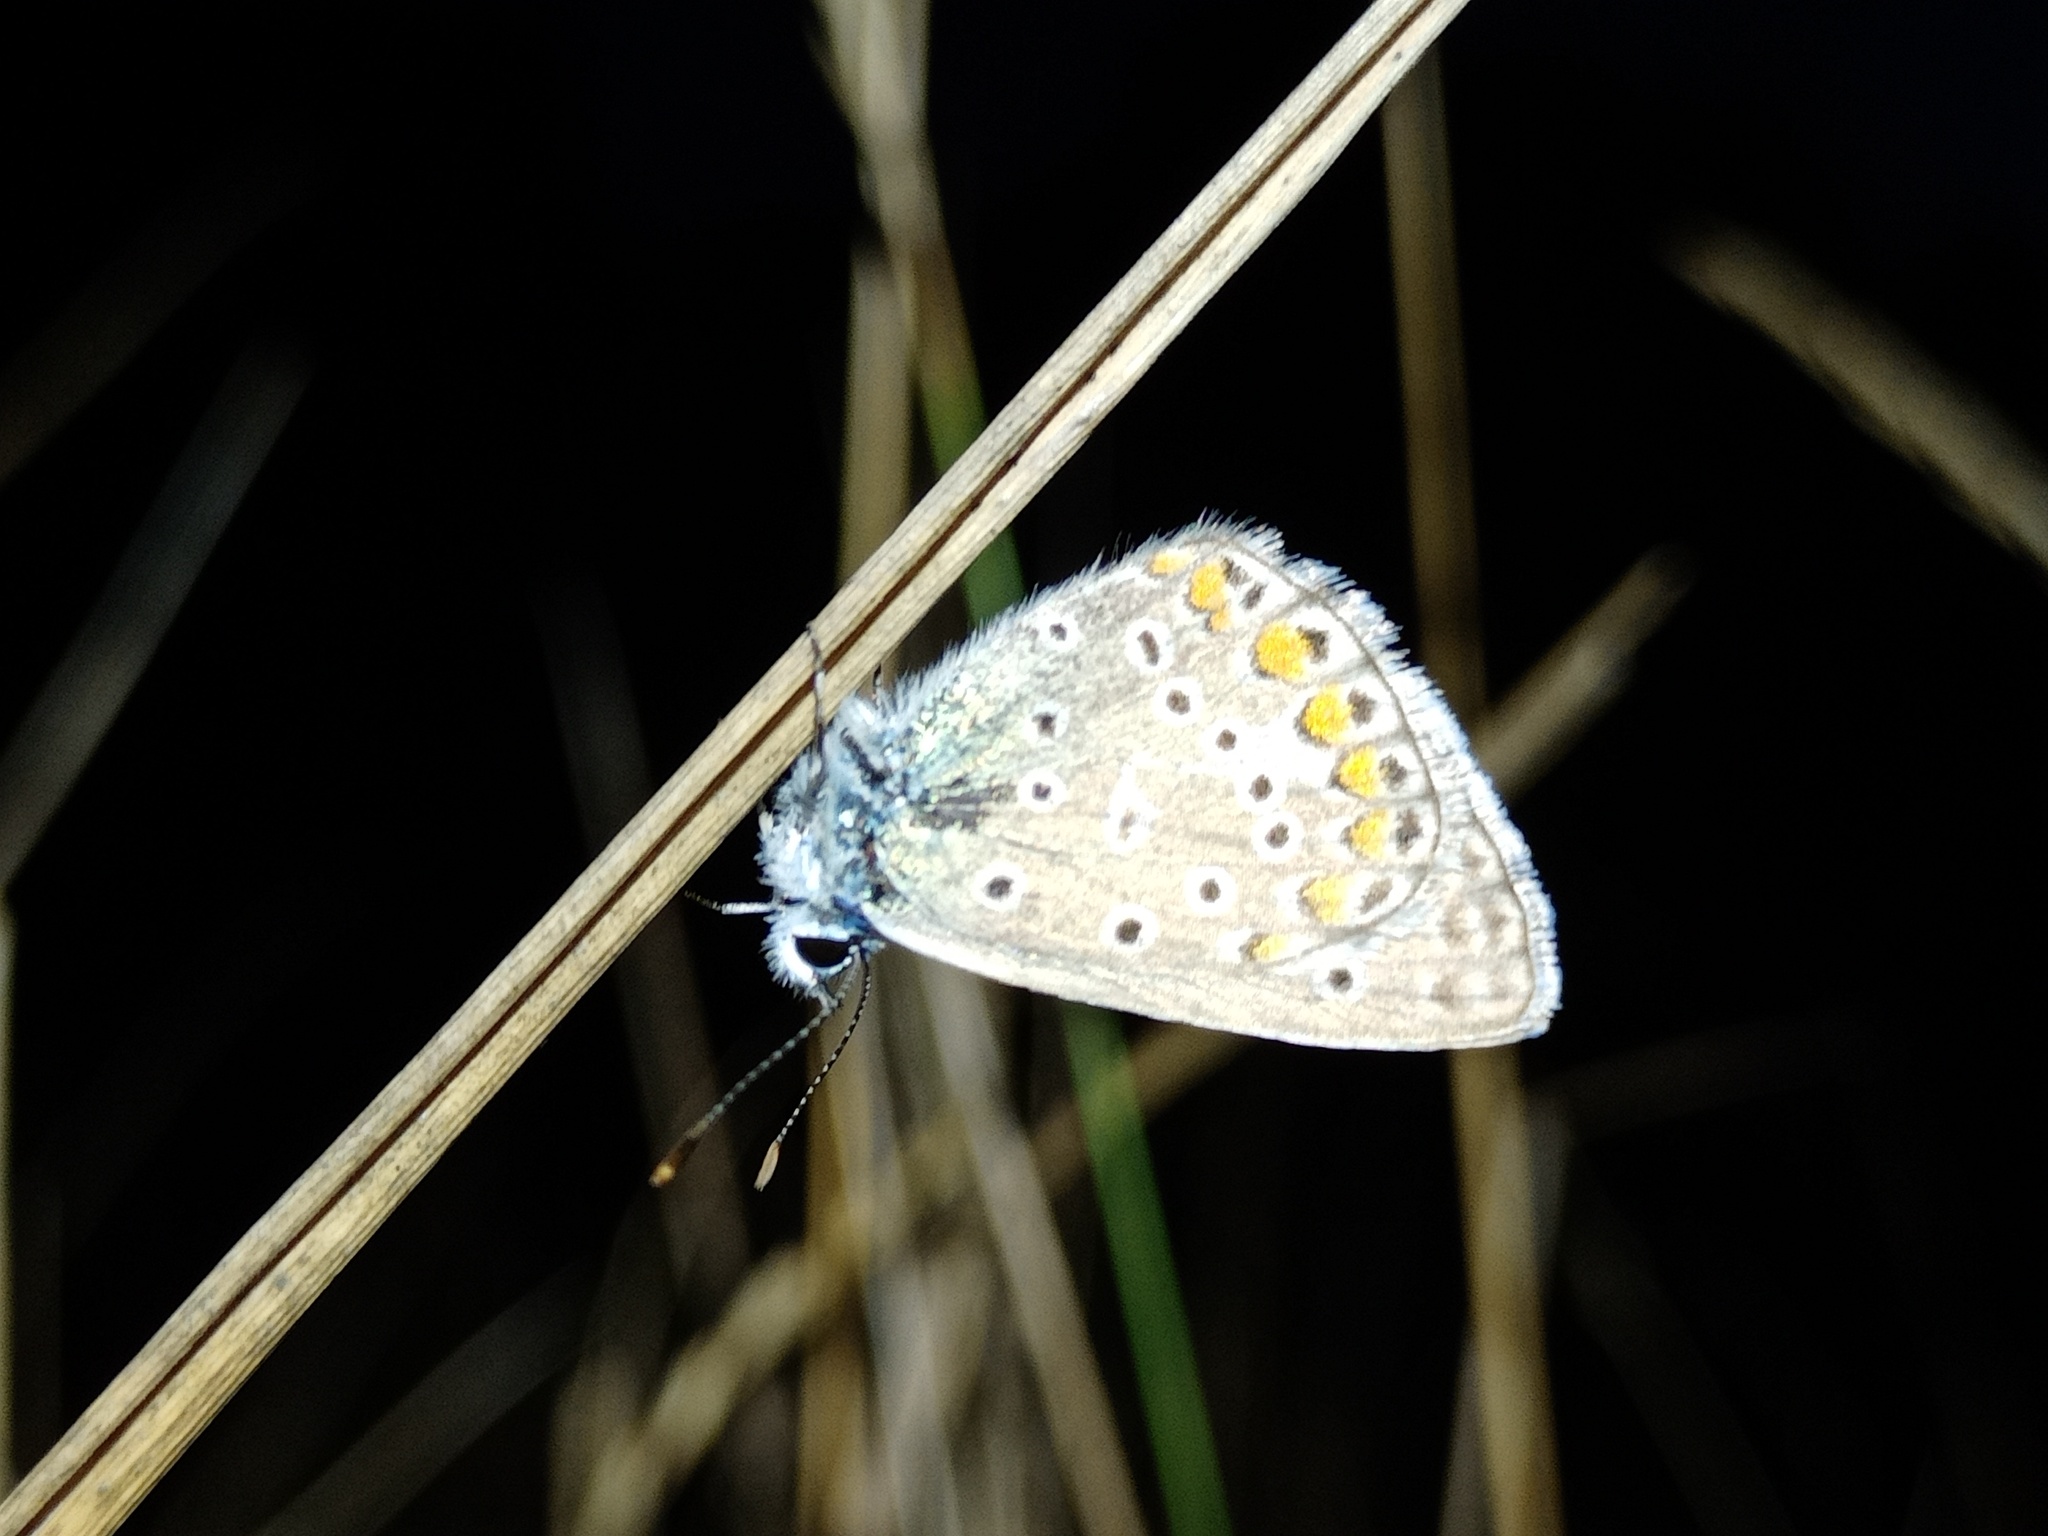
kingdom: Animalia
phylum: Arthropoda
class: Insecta
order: Lepidoptera
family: Lycaenidae
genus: Polyommatus
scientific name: Polyommatus icarus
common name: Common blue
